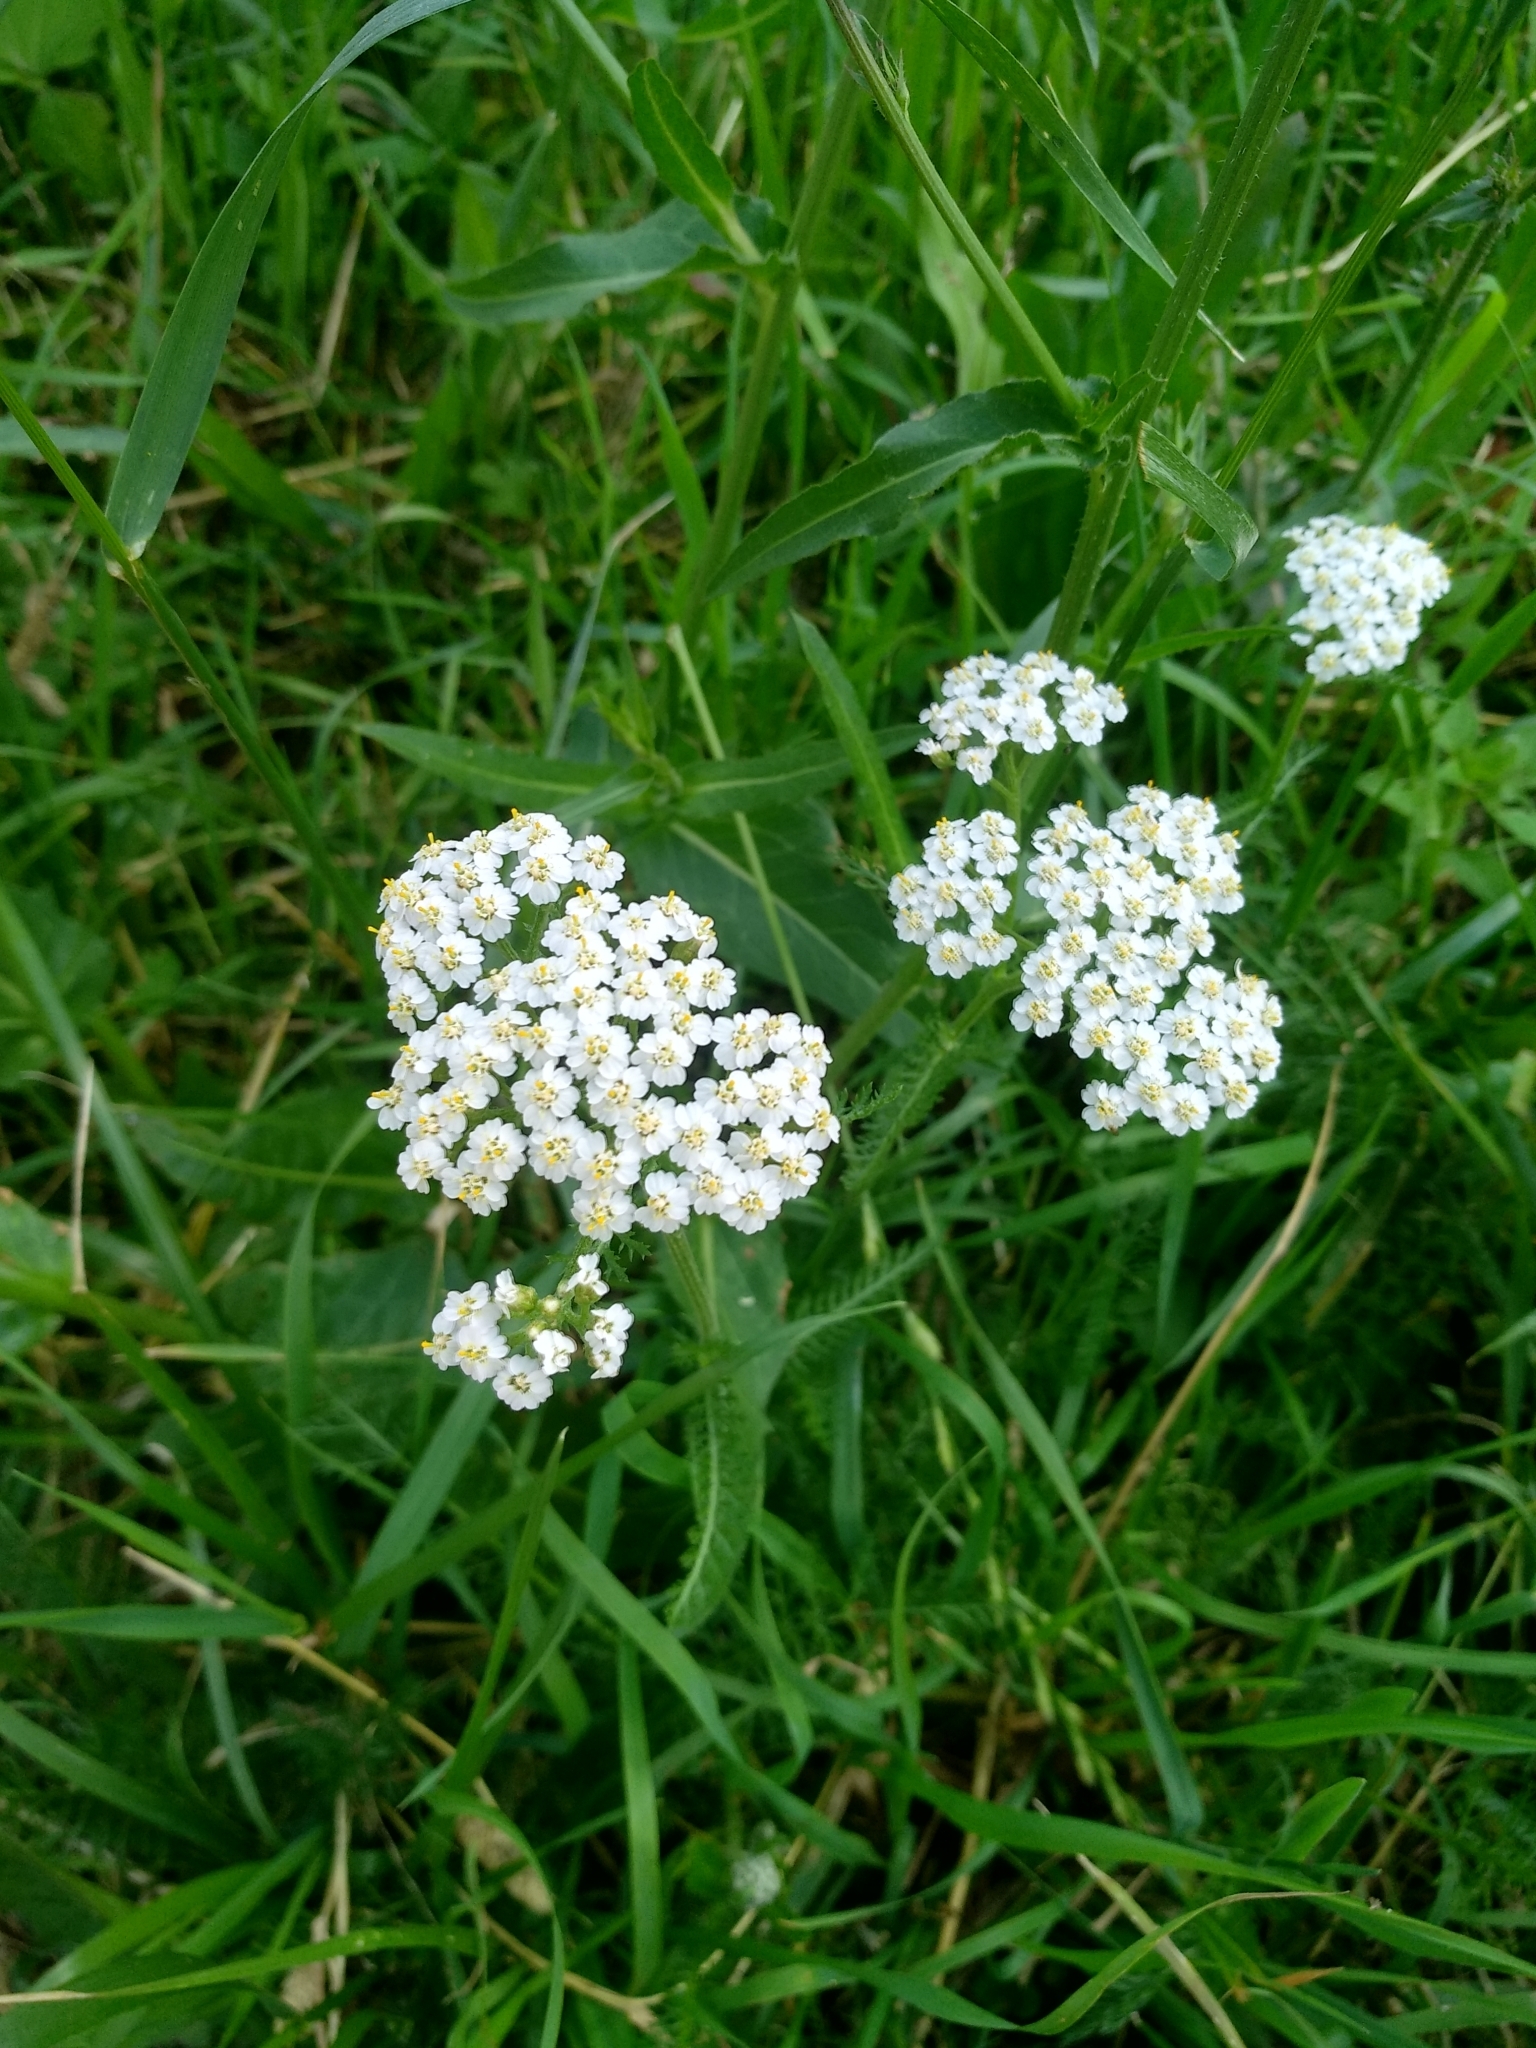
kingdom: Plantae
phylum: Tracheophyta
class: Magnoliopsida
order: Asterales
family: Asteraceae
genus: Achillea
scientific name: Achillea millefolium
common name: Yarrow
